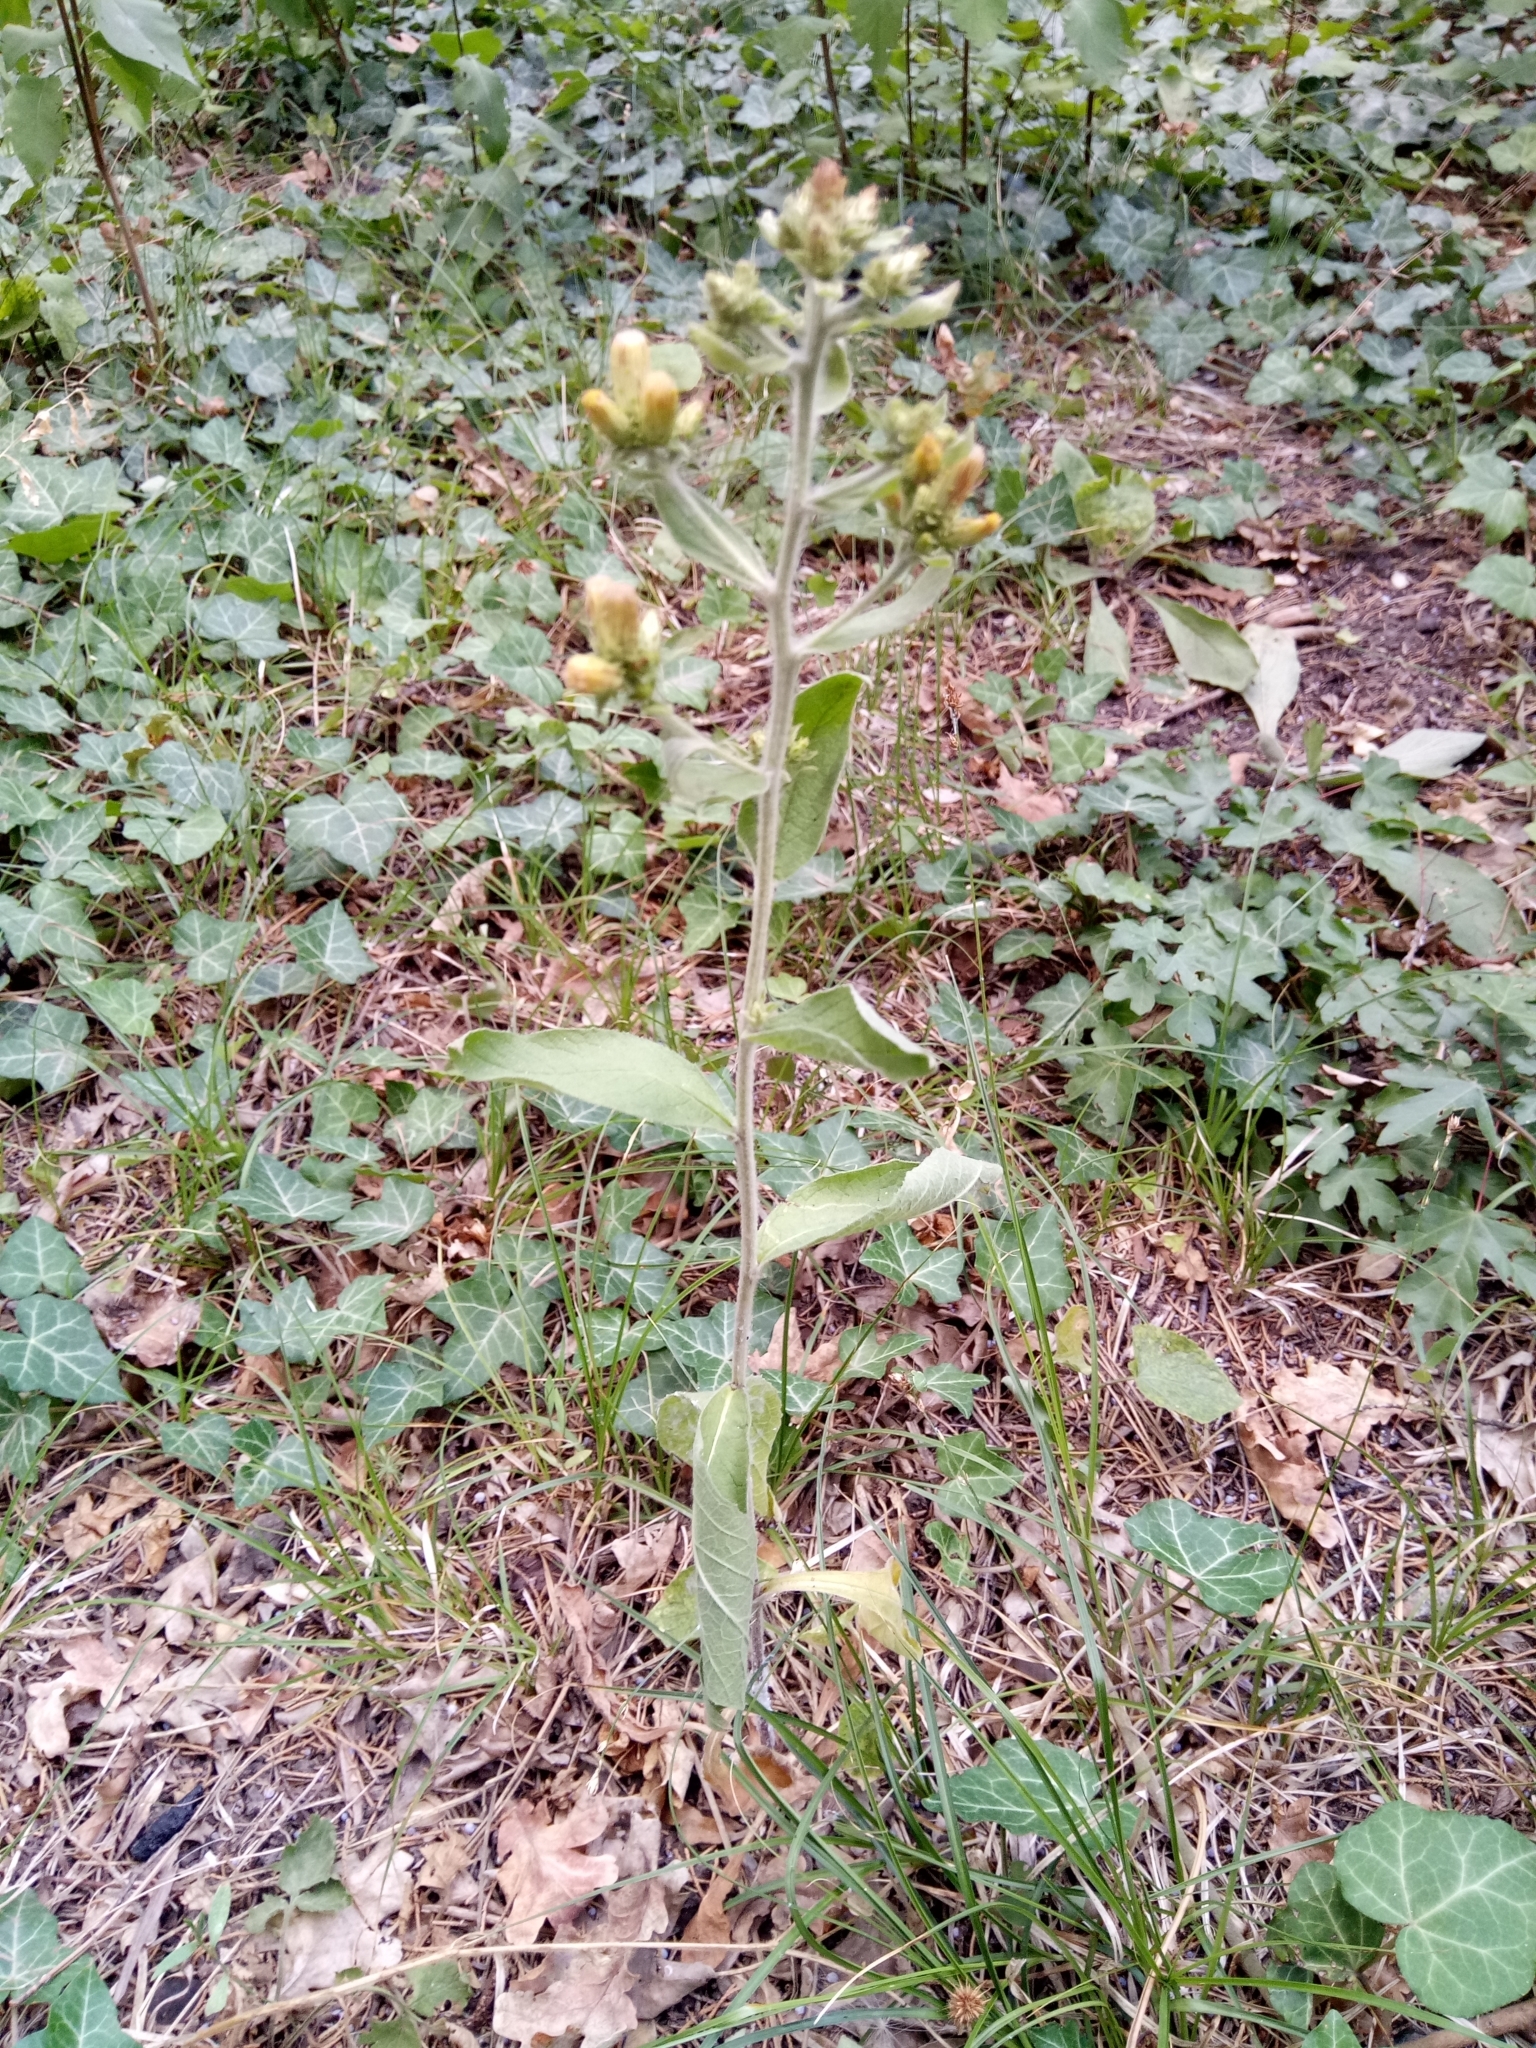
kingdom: Plantae
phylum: Tracheophyta
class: Magnoliopsida
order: Asterales
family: Asteraceae
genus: Pentanema
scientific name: Pentanema squarrosum
